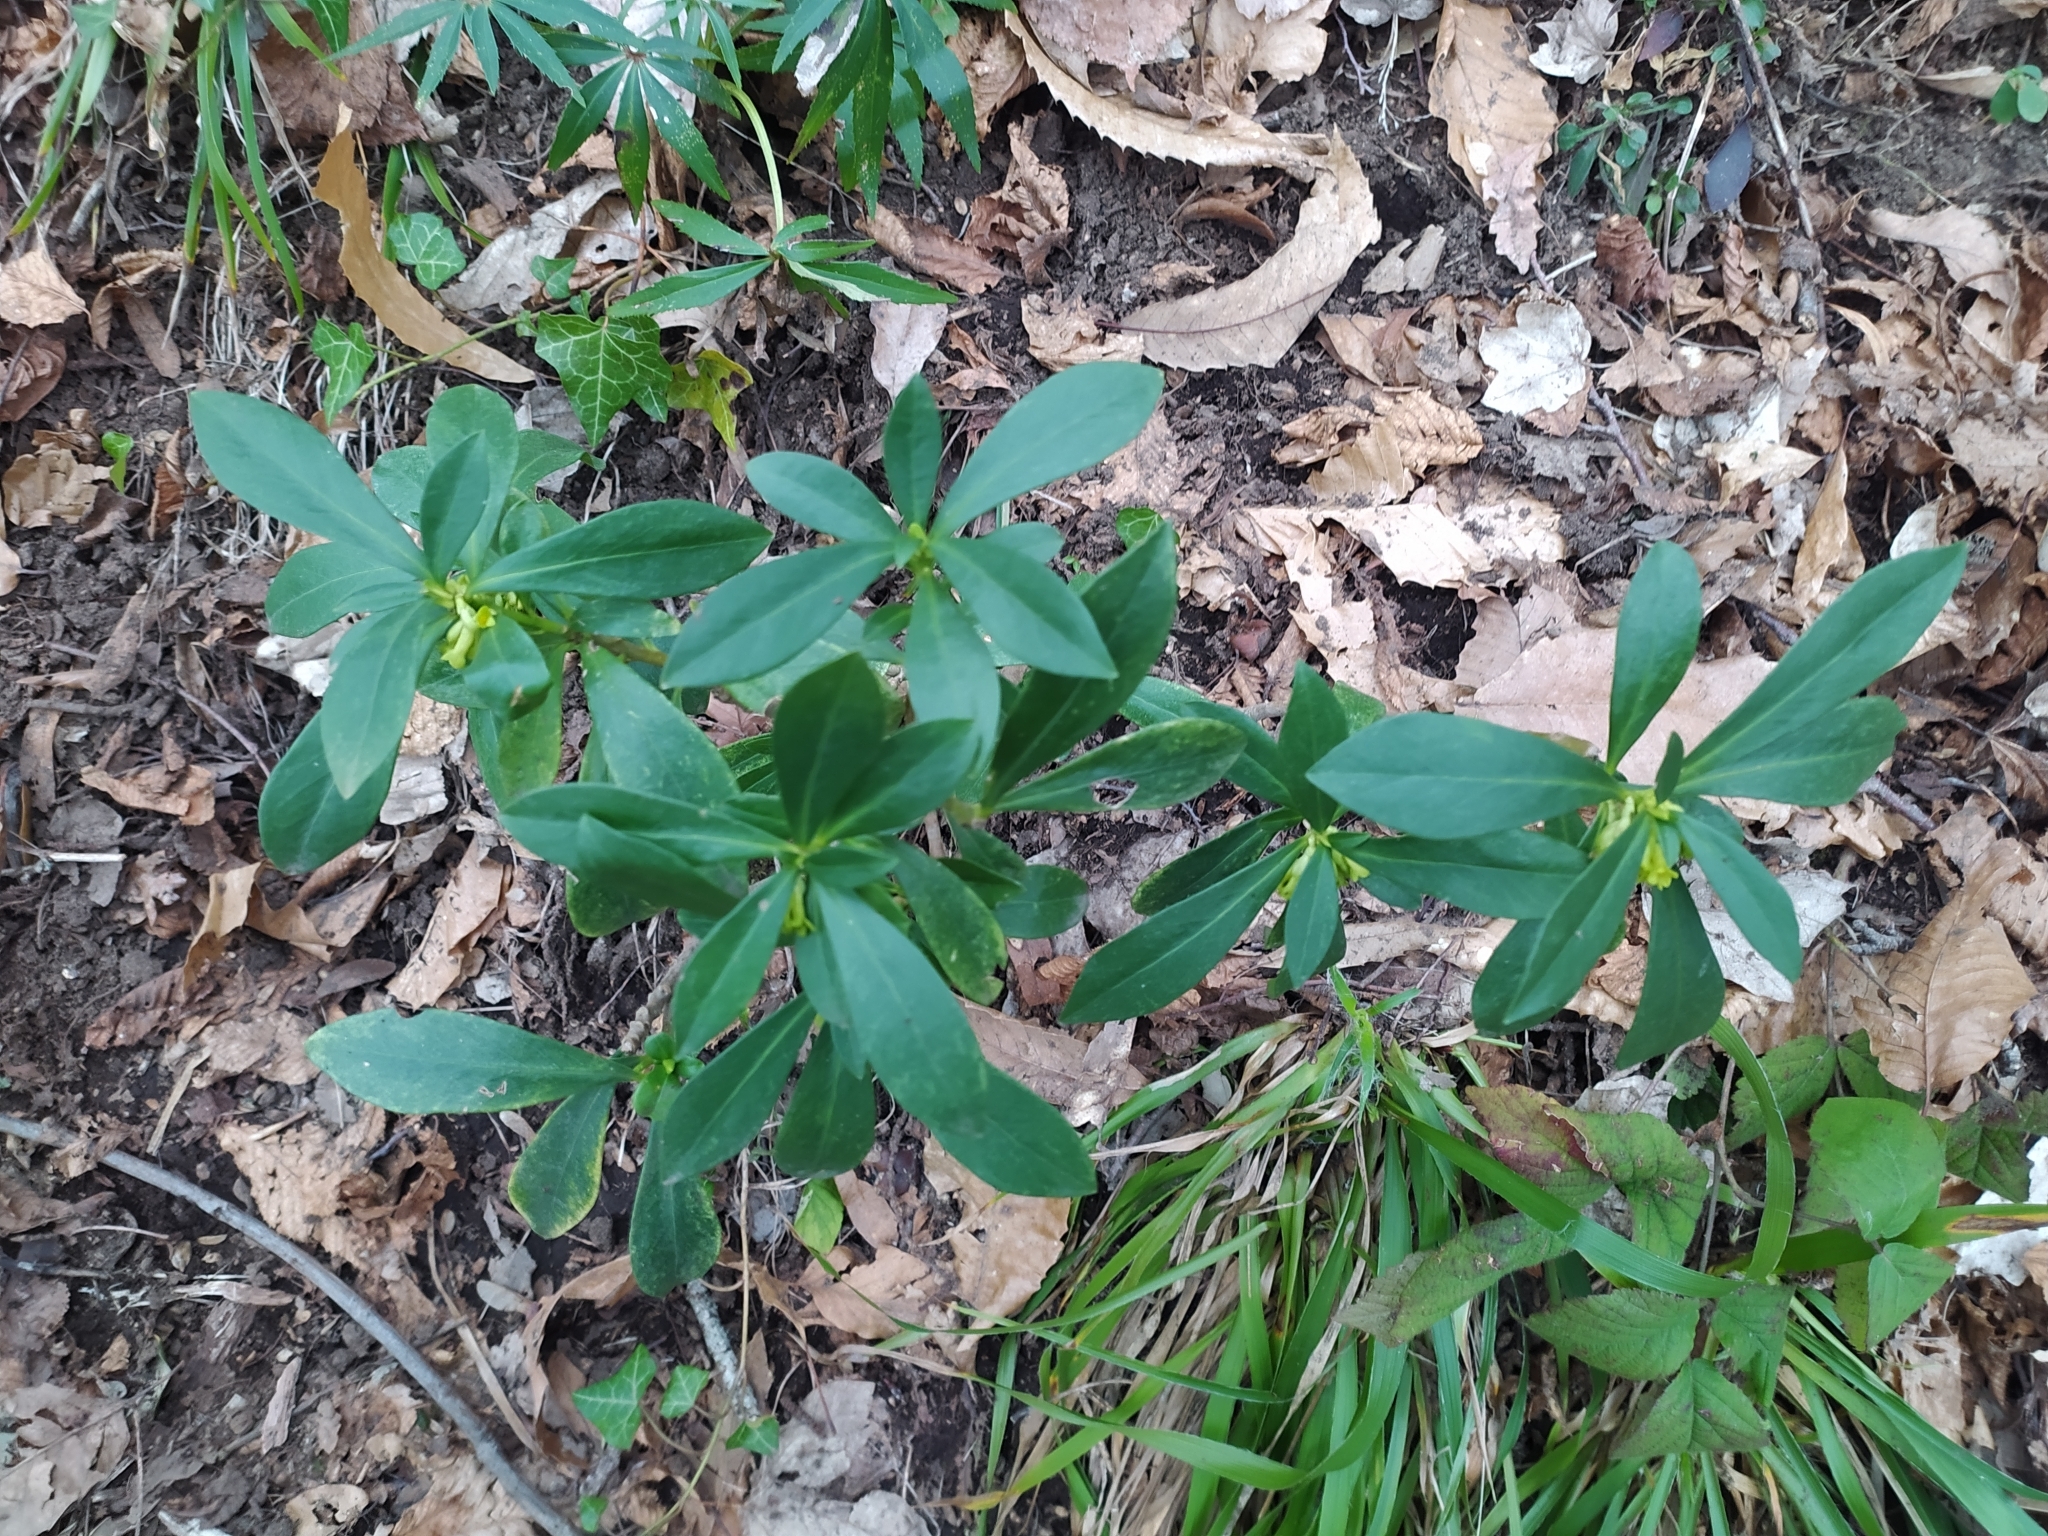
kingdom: Plantae
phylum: Tracheophyta
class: Magnoliopsida
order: Malvales
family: Thymelaeaceae
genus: Daphne
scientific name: Daphne laureola
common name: Spurge-laurel
